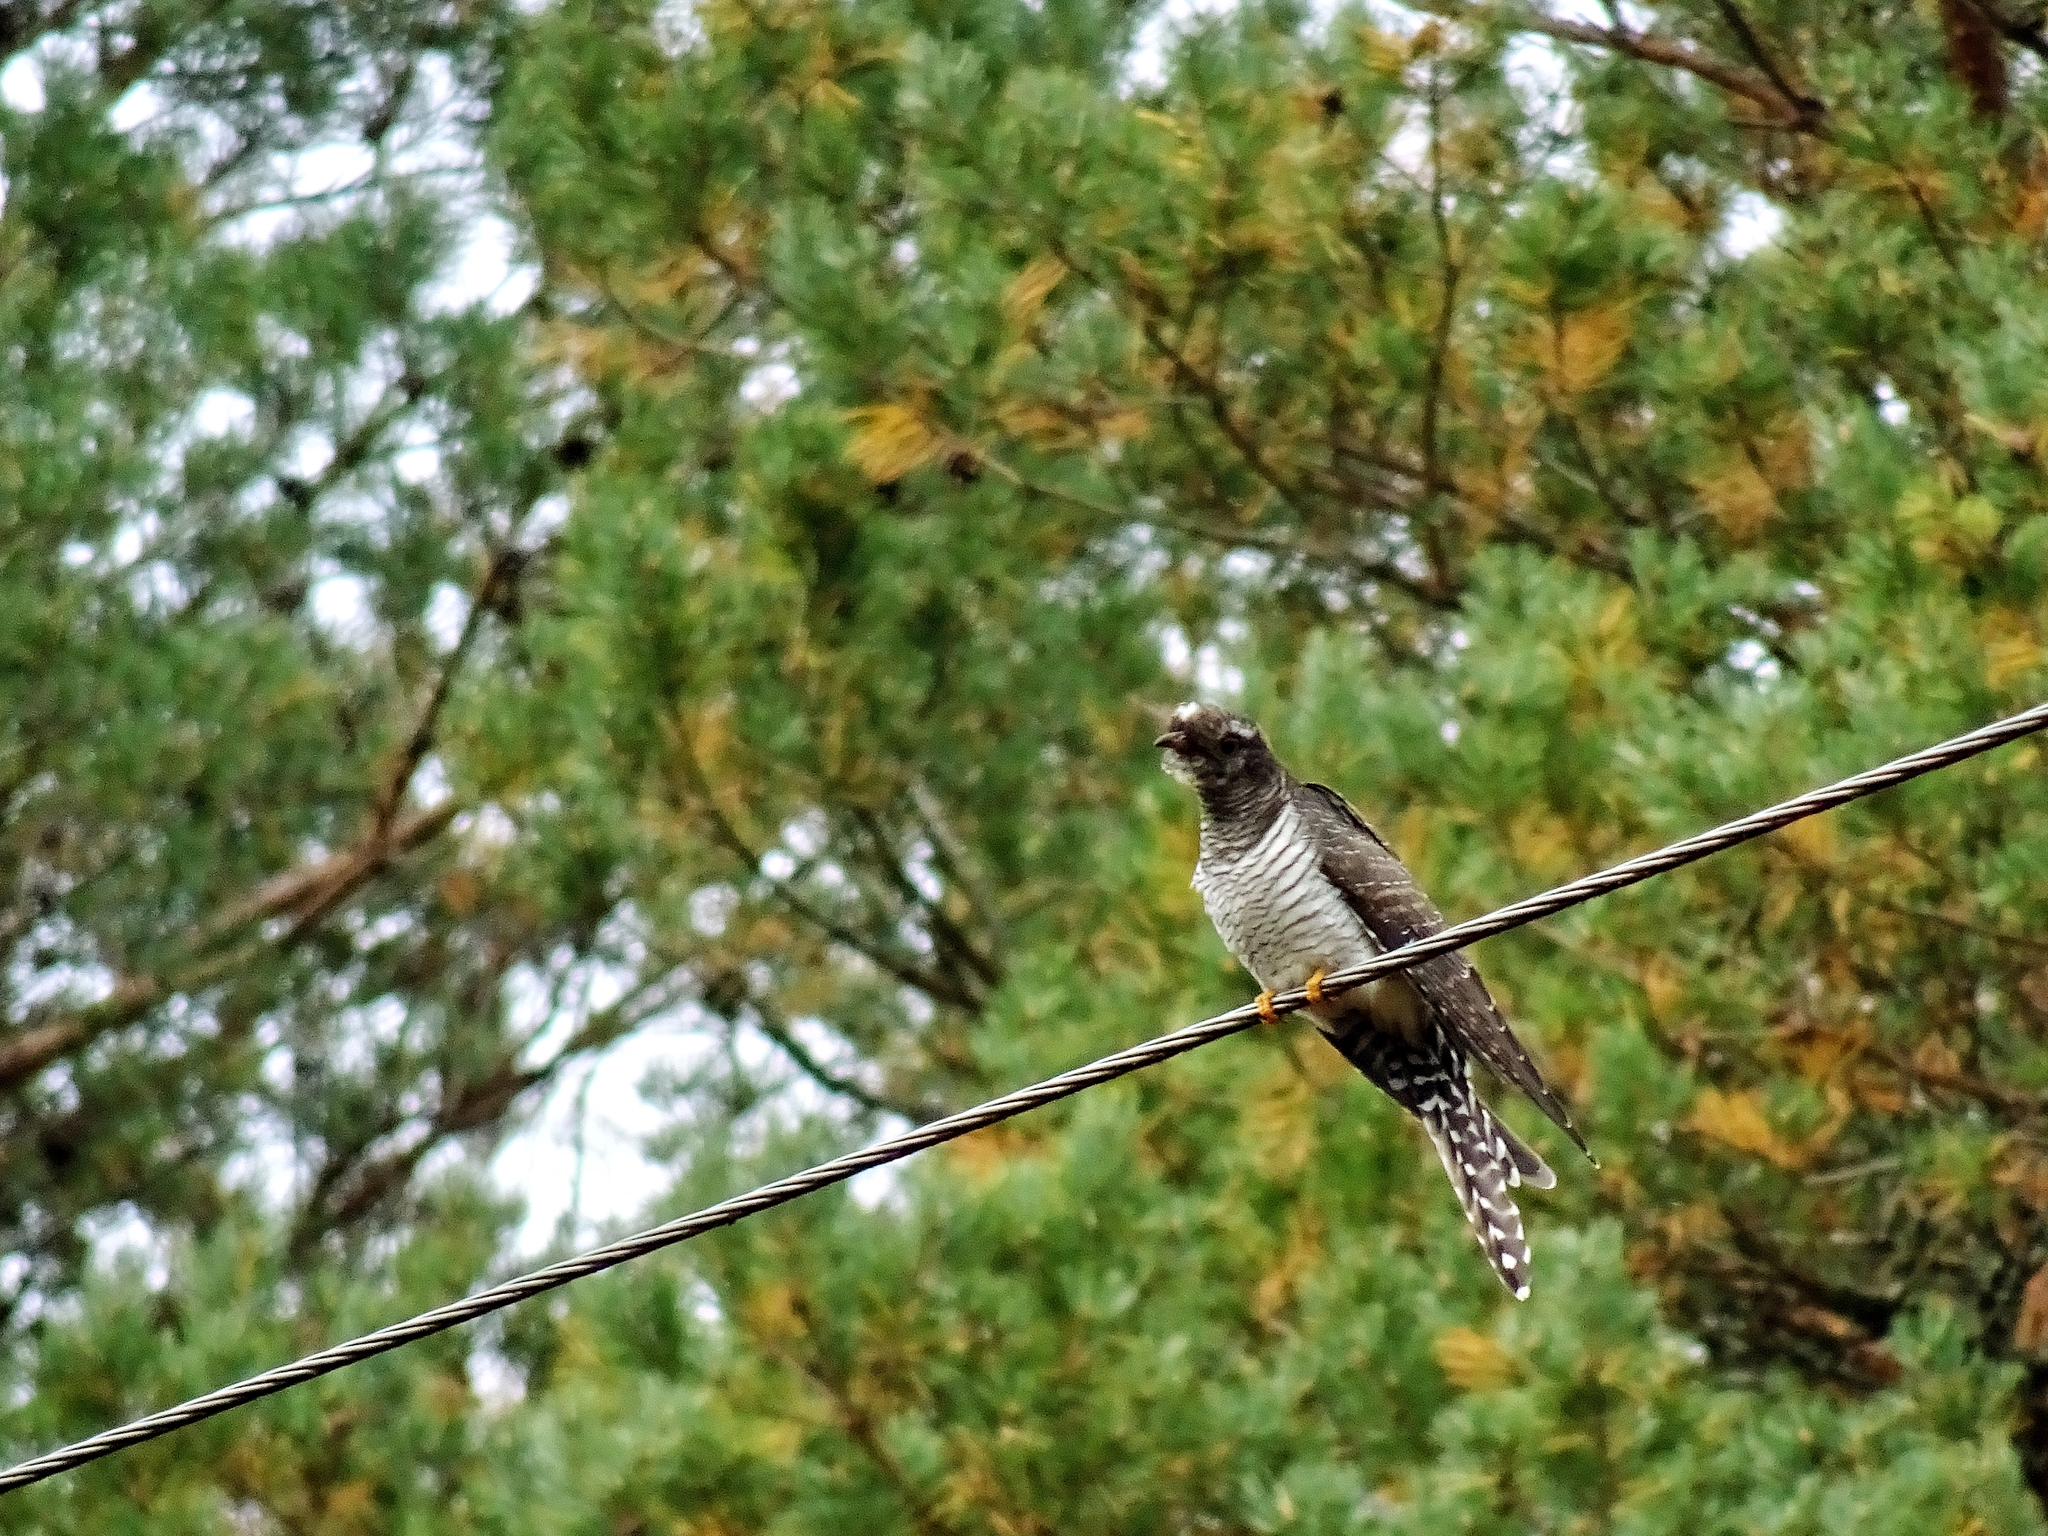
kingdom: Animalia
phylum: Chordata
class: Aves
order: Cuculiformes
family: Cuculidae
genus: Cuculus
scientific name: Cuculus canorus
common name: Common cuckoo
